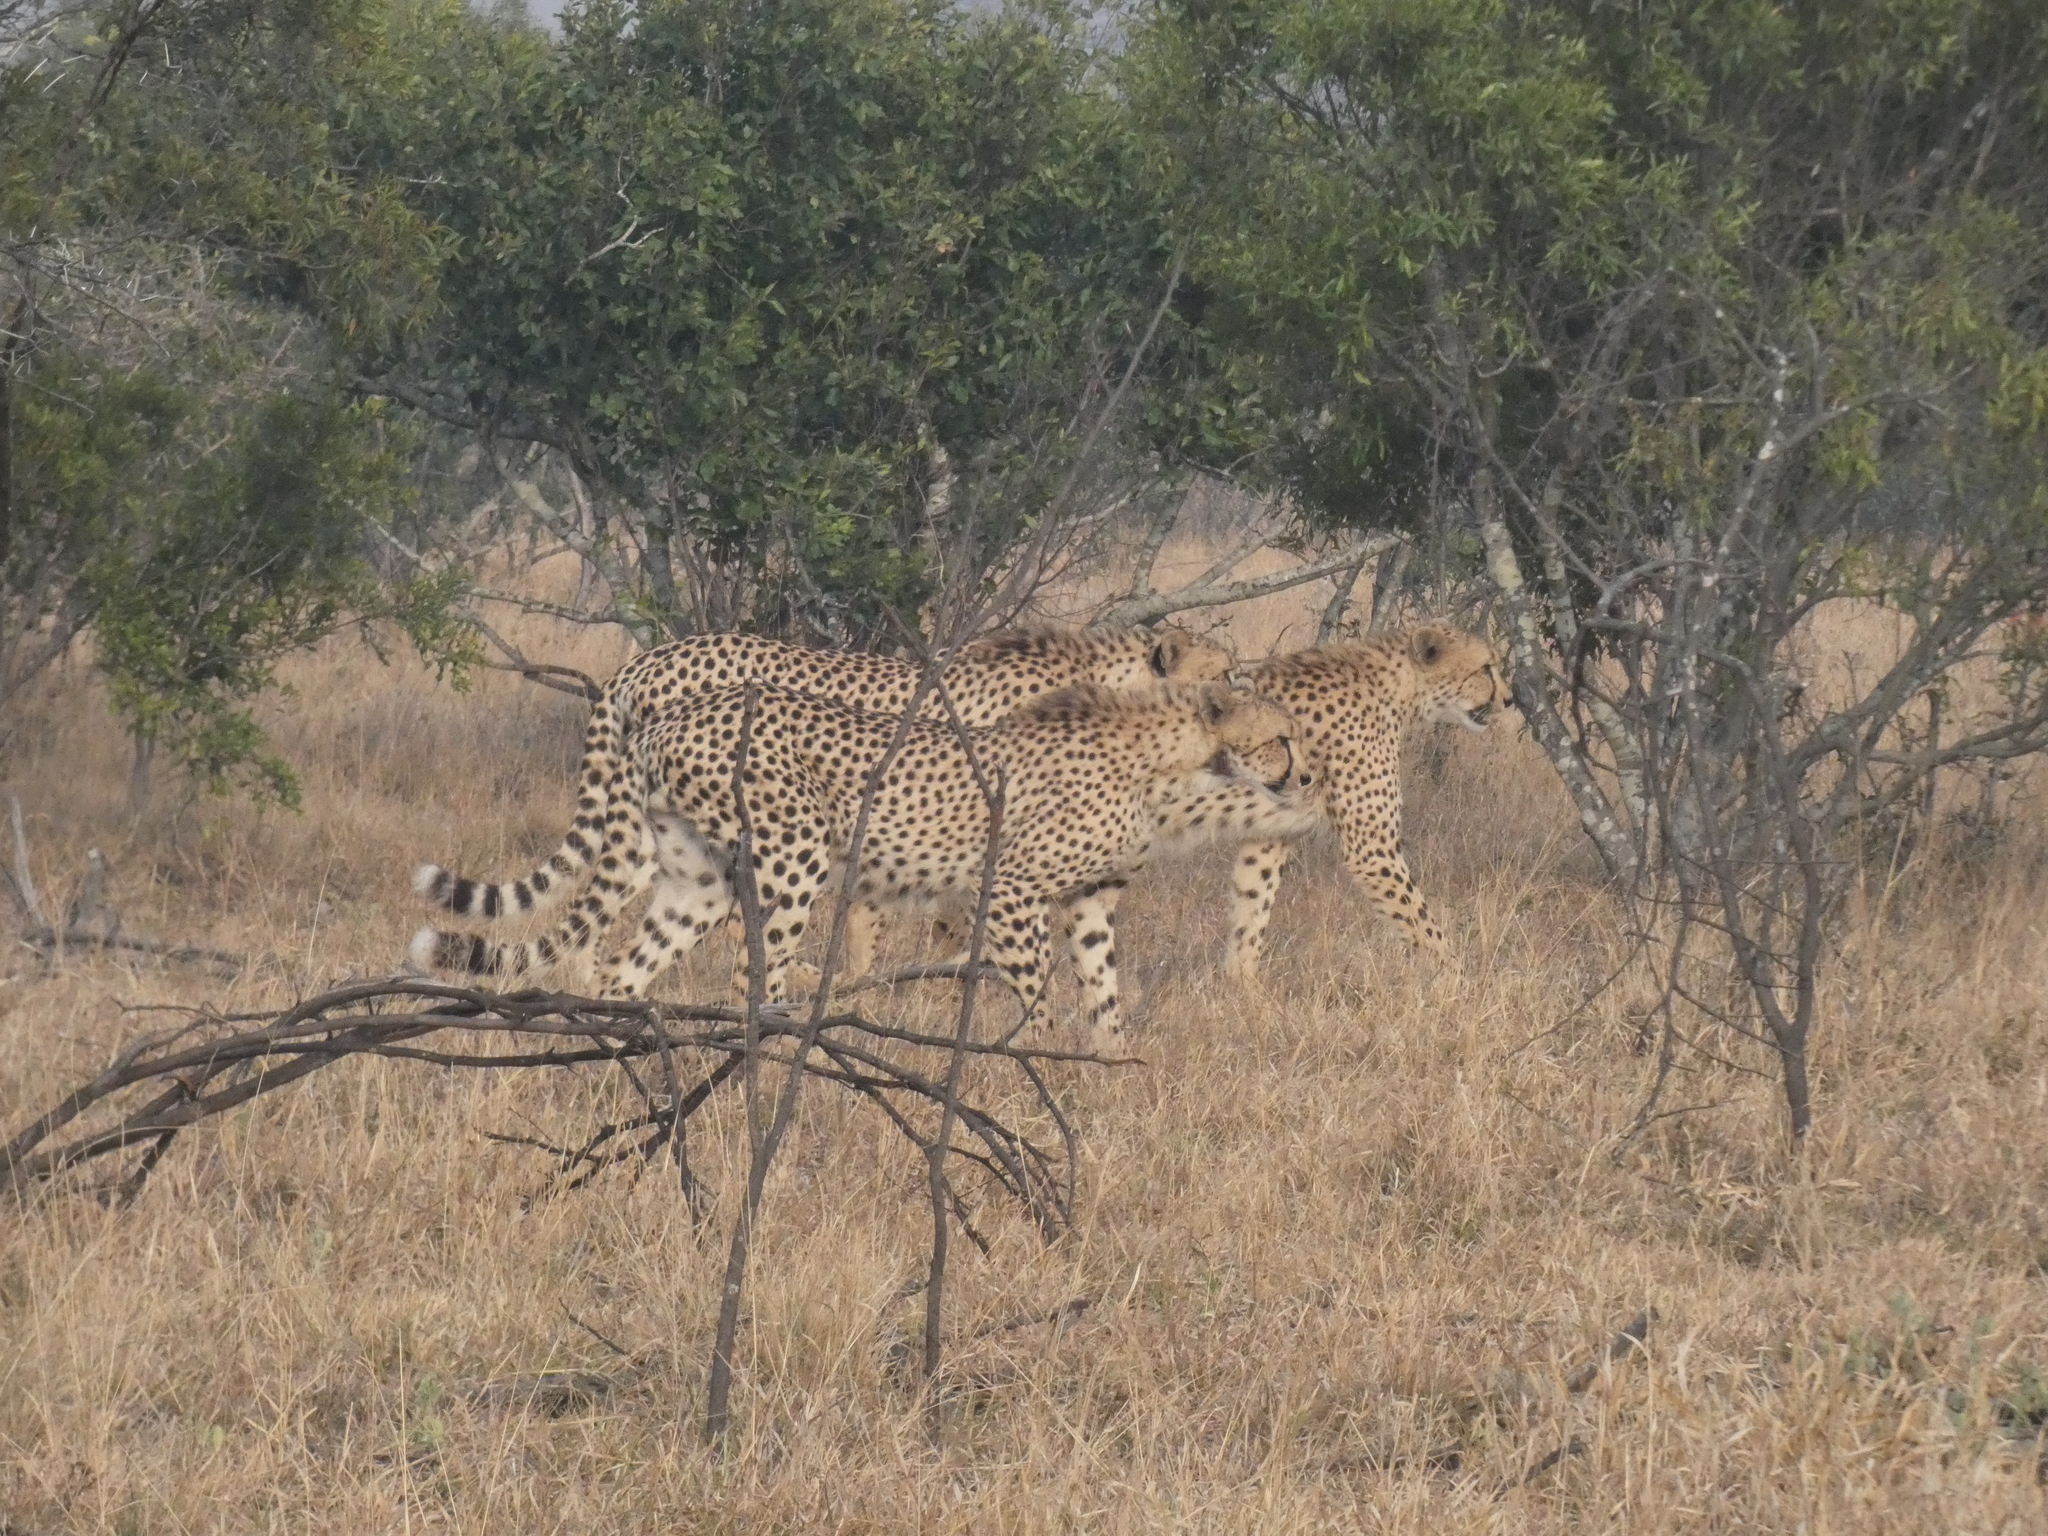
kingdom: Animalia
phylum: Chordata
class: Mammalia
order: Carnivora
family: Felidae
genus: Acinonyx
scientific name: Acinonyx jubatus
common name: Cheetah
